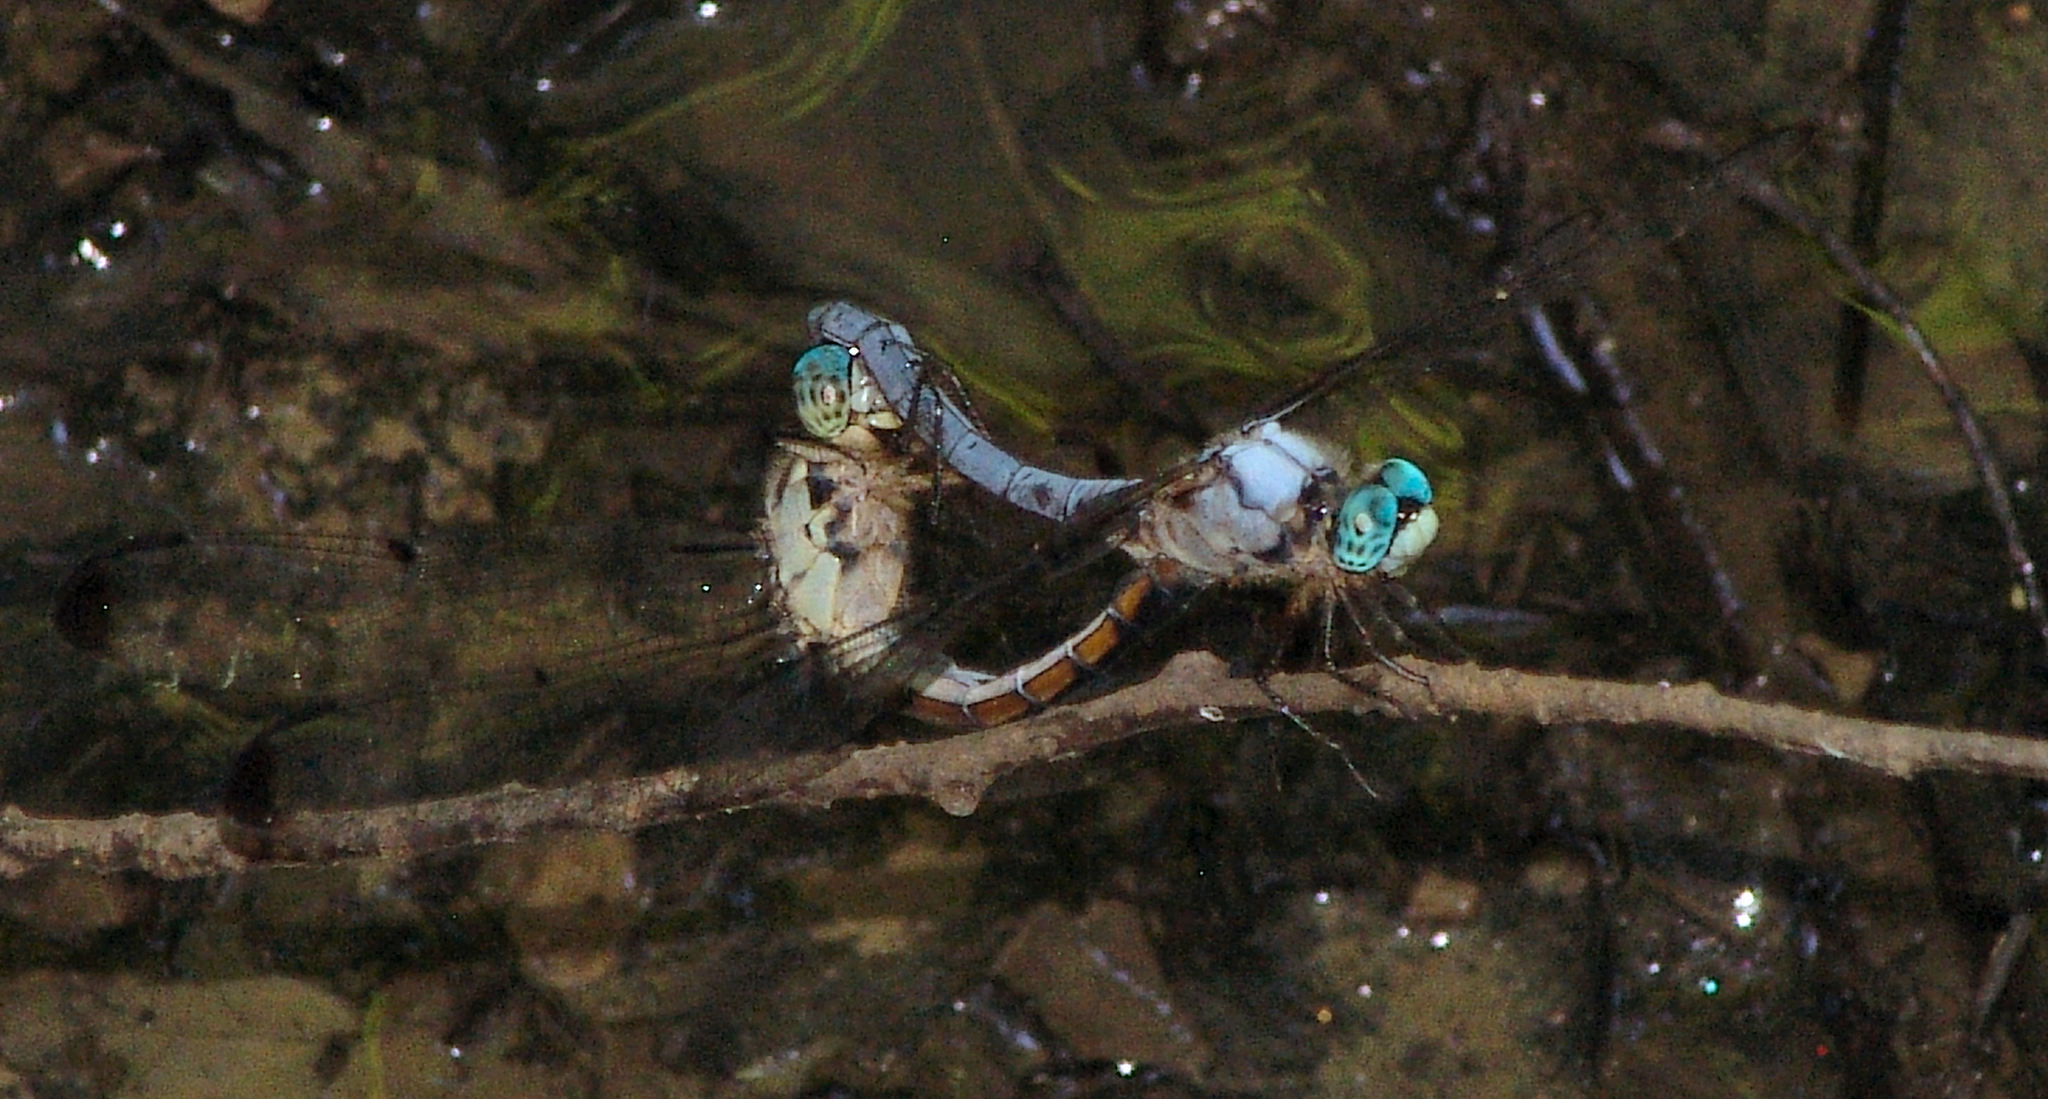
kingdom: Animalia
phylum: Arthropoda
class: Insecta
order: Odonata
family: Libellulidae
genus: Libellula
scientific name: Libellula vibrans
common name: Great blue skimmer
